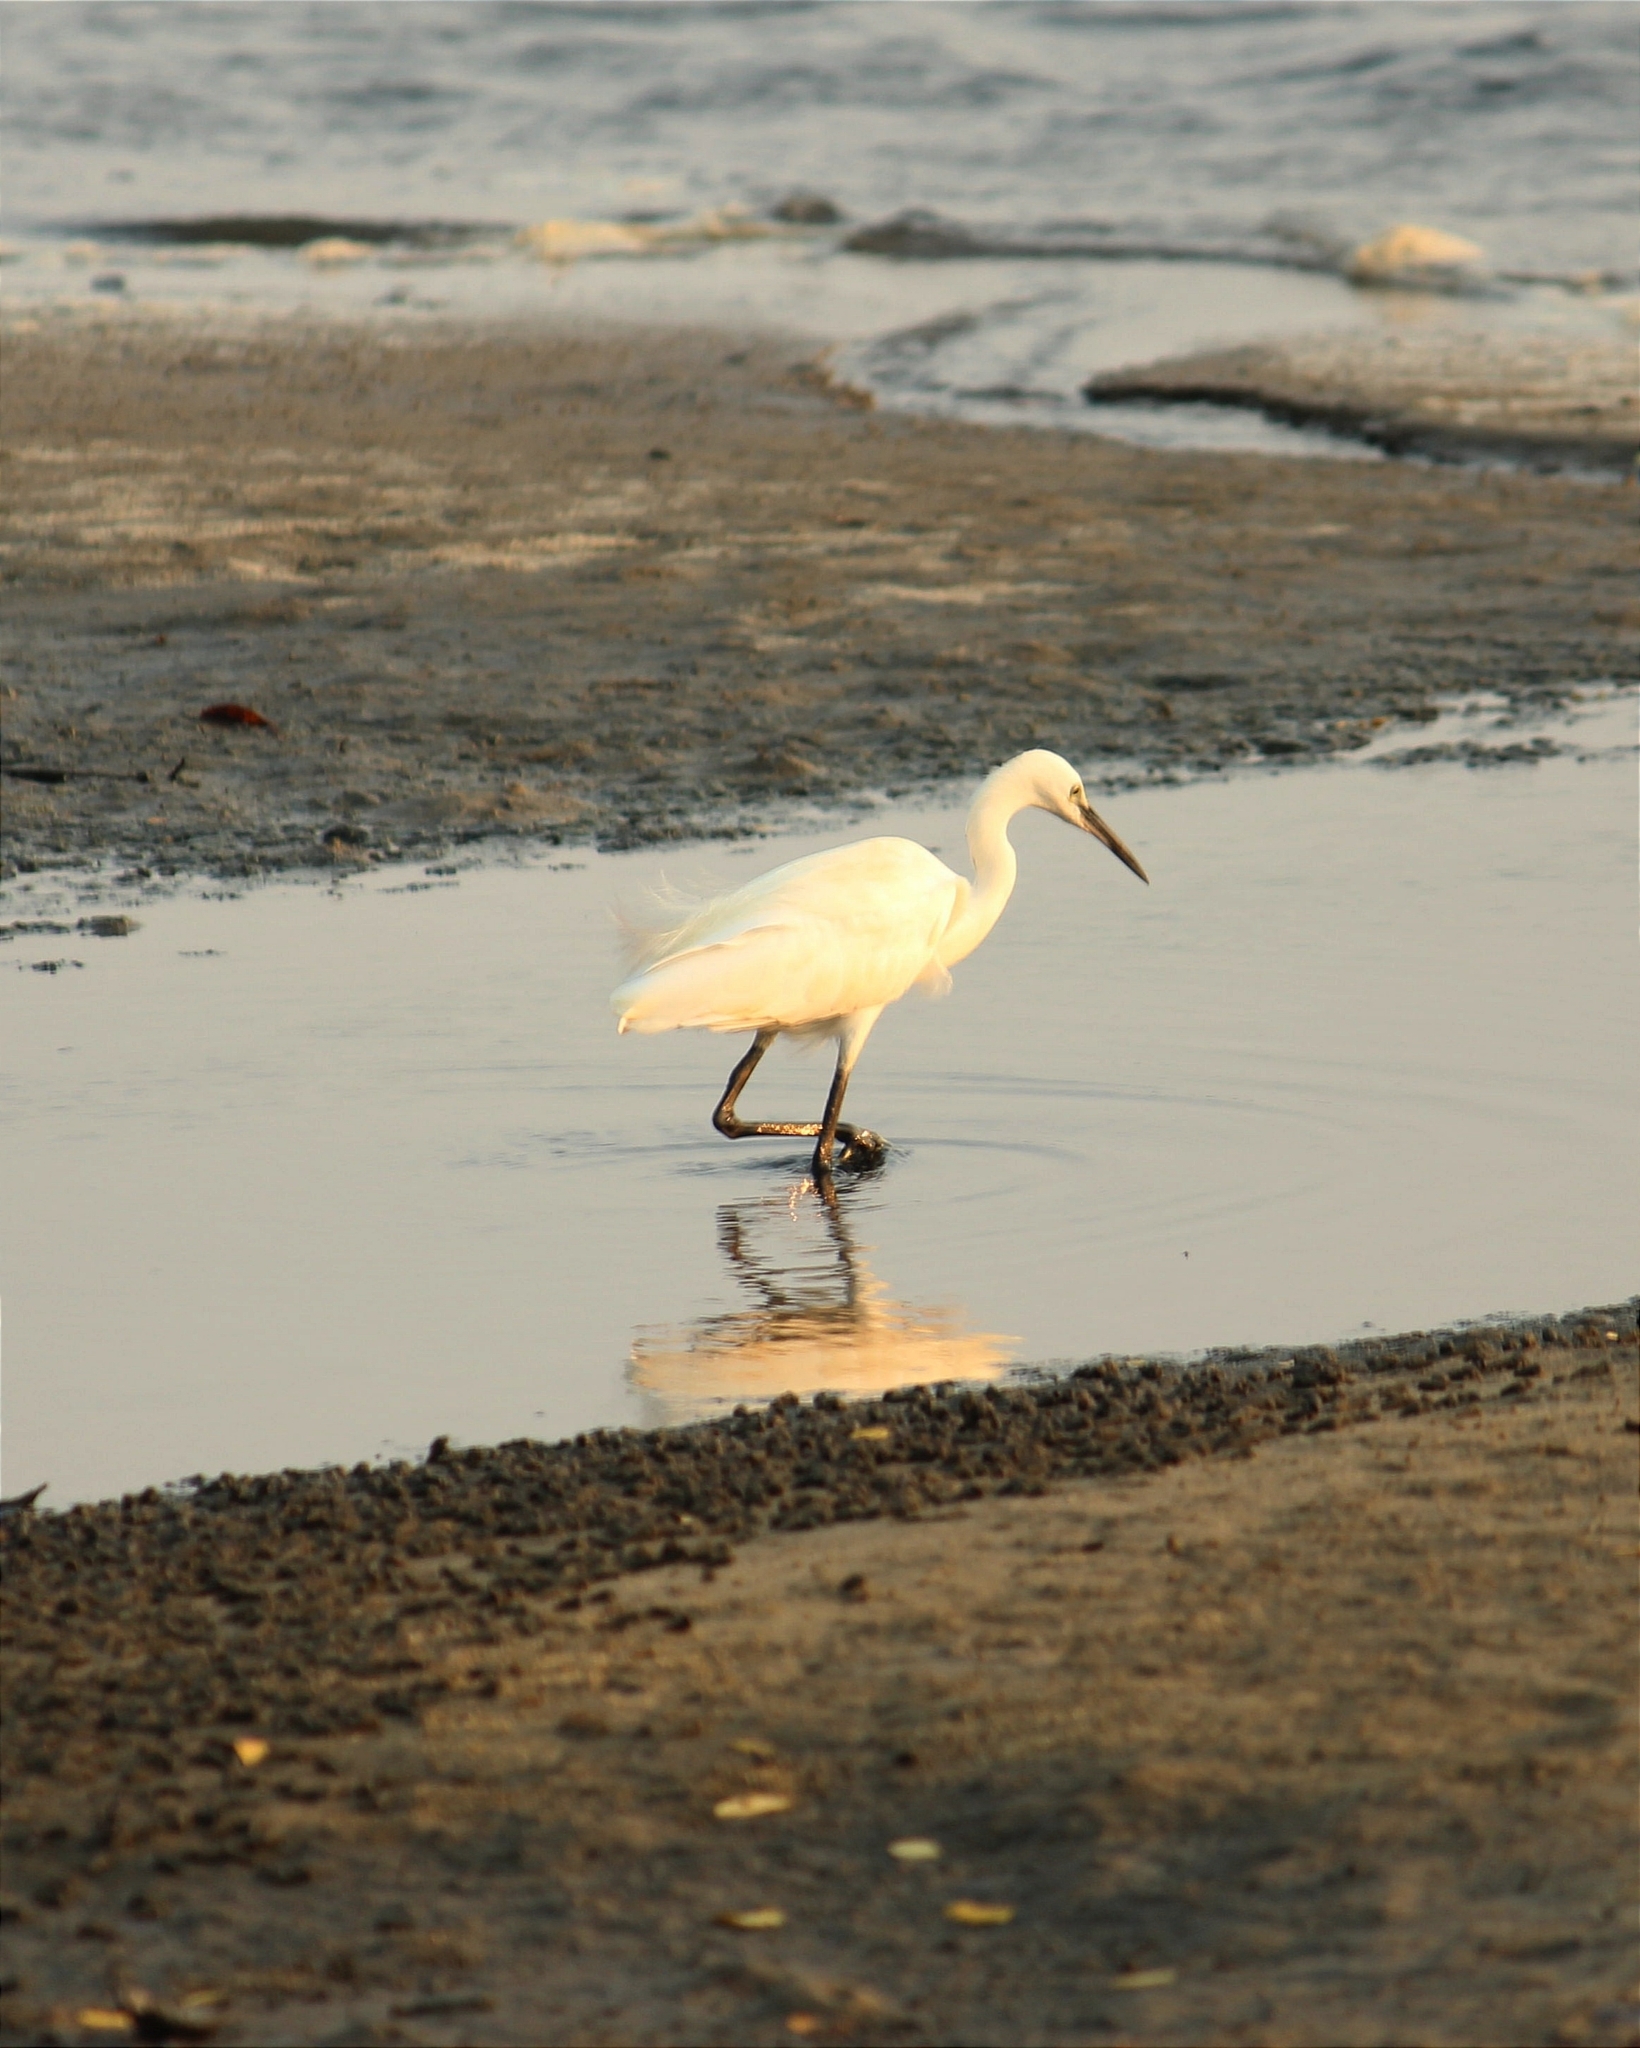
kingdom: Animalia
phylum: Chordata
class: Aves
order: Pelecaniformes
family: Ardeidae
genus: Egretta
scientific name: Egretta garzetta
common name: Little egret
